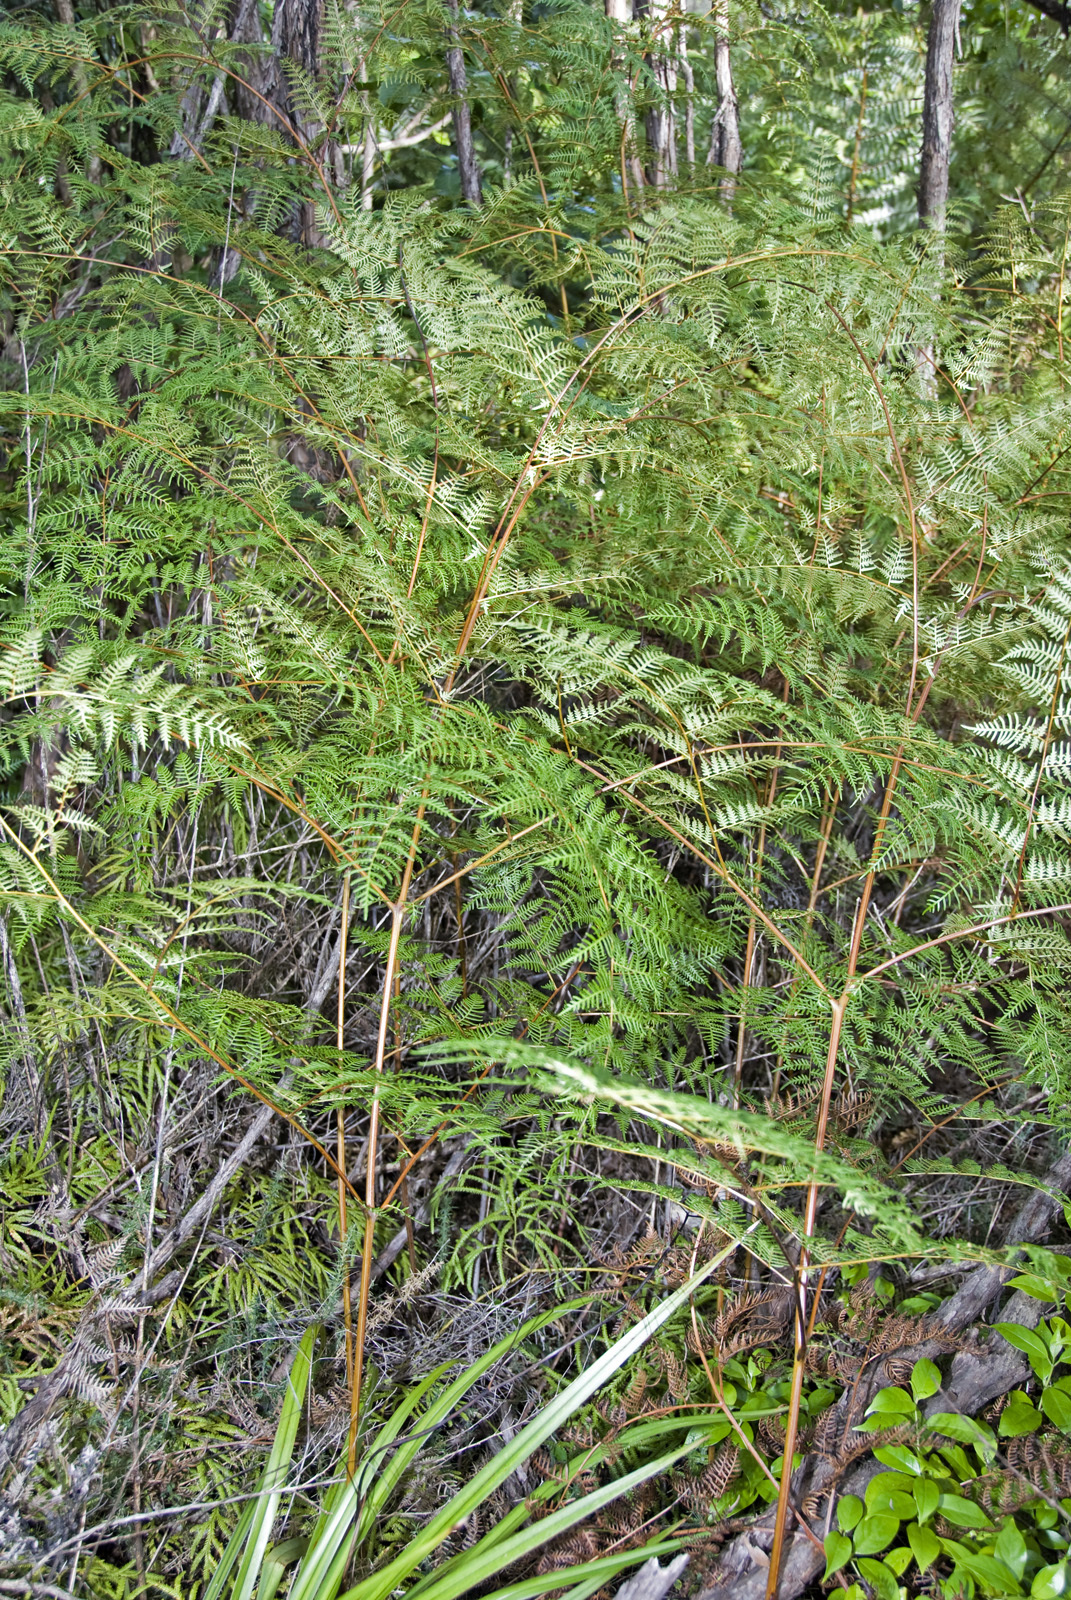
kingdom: Plantae
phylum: Tracheophyta
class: Polypodiopsida
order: Polypodiales
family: Dennstaedtiaceae
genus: Pteridium
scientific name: Pteridium esculentum
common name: Bracken fern
